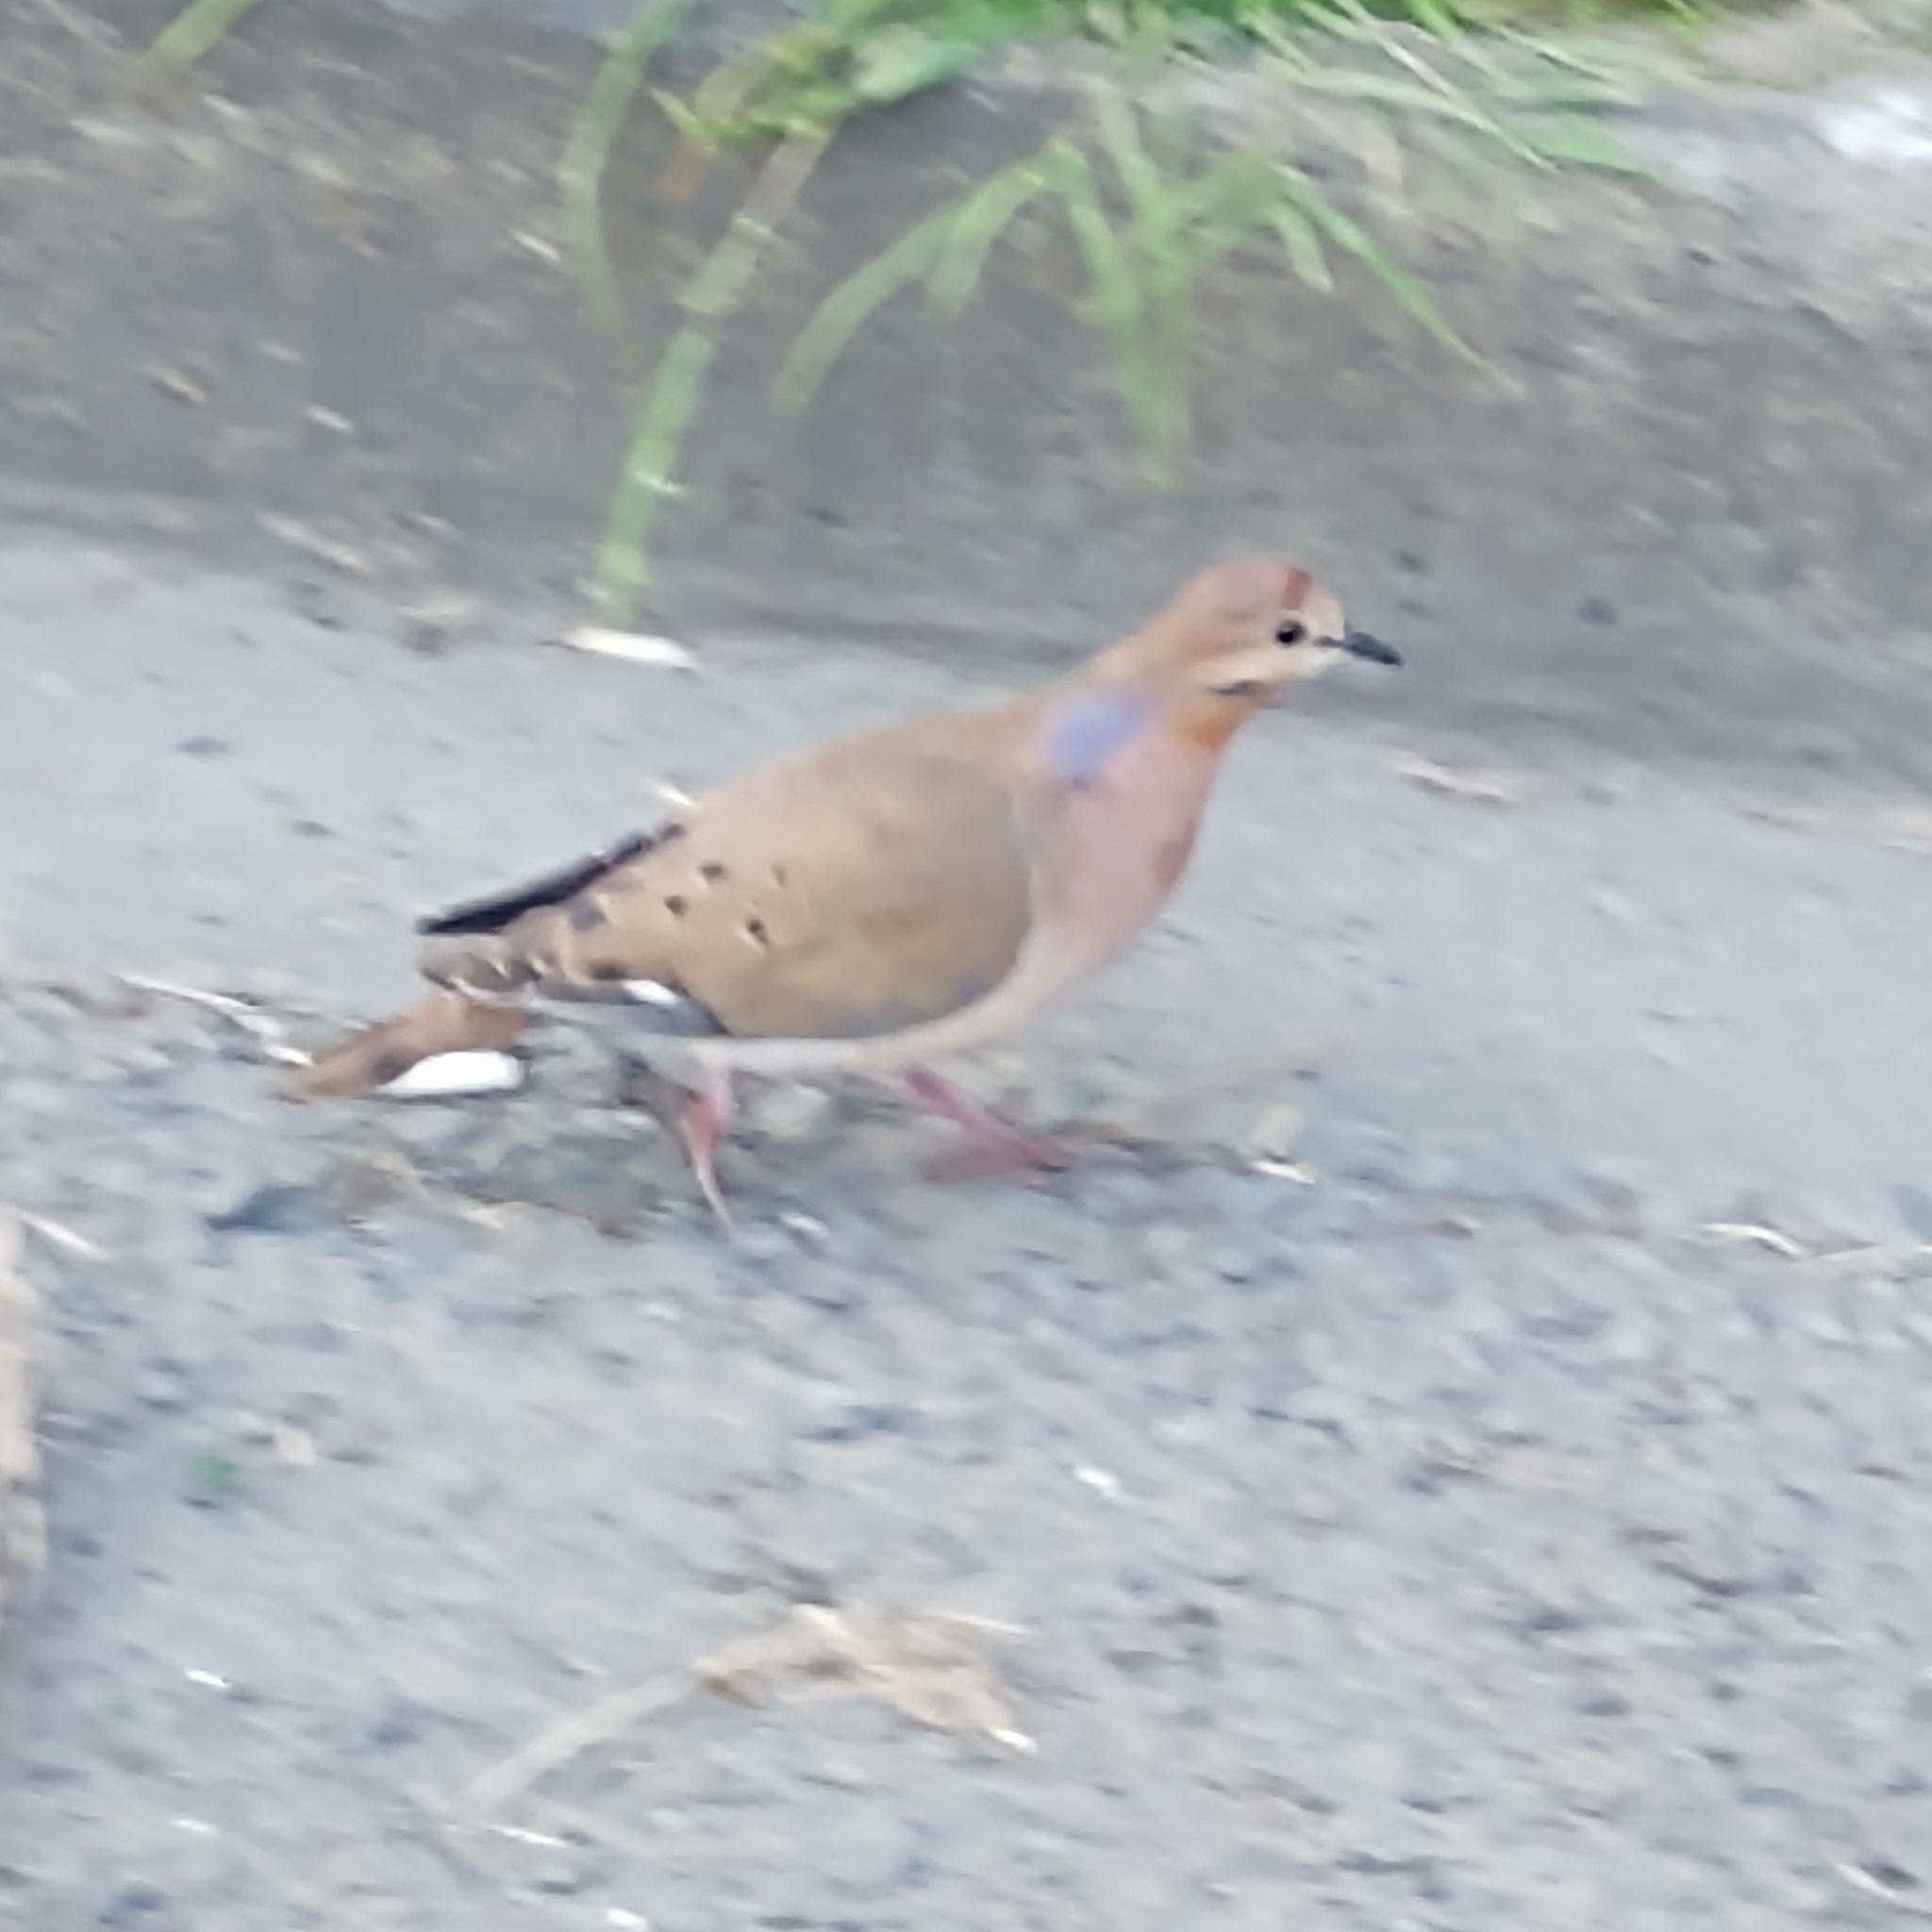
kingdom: Animalia
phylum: Chordata
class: Aves
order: Columbiformes
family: Columbidae
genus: Zenaida
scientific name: Zenaida aurita
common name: Zenaida dove
